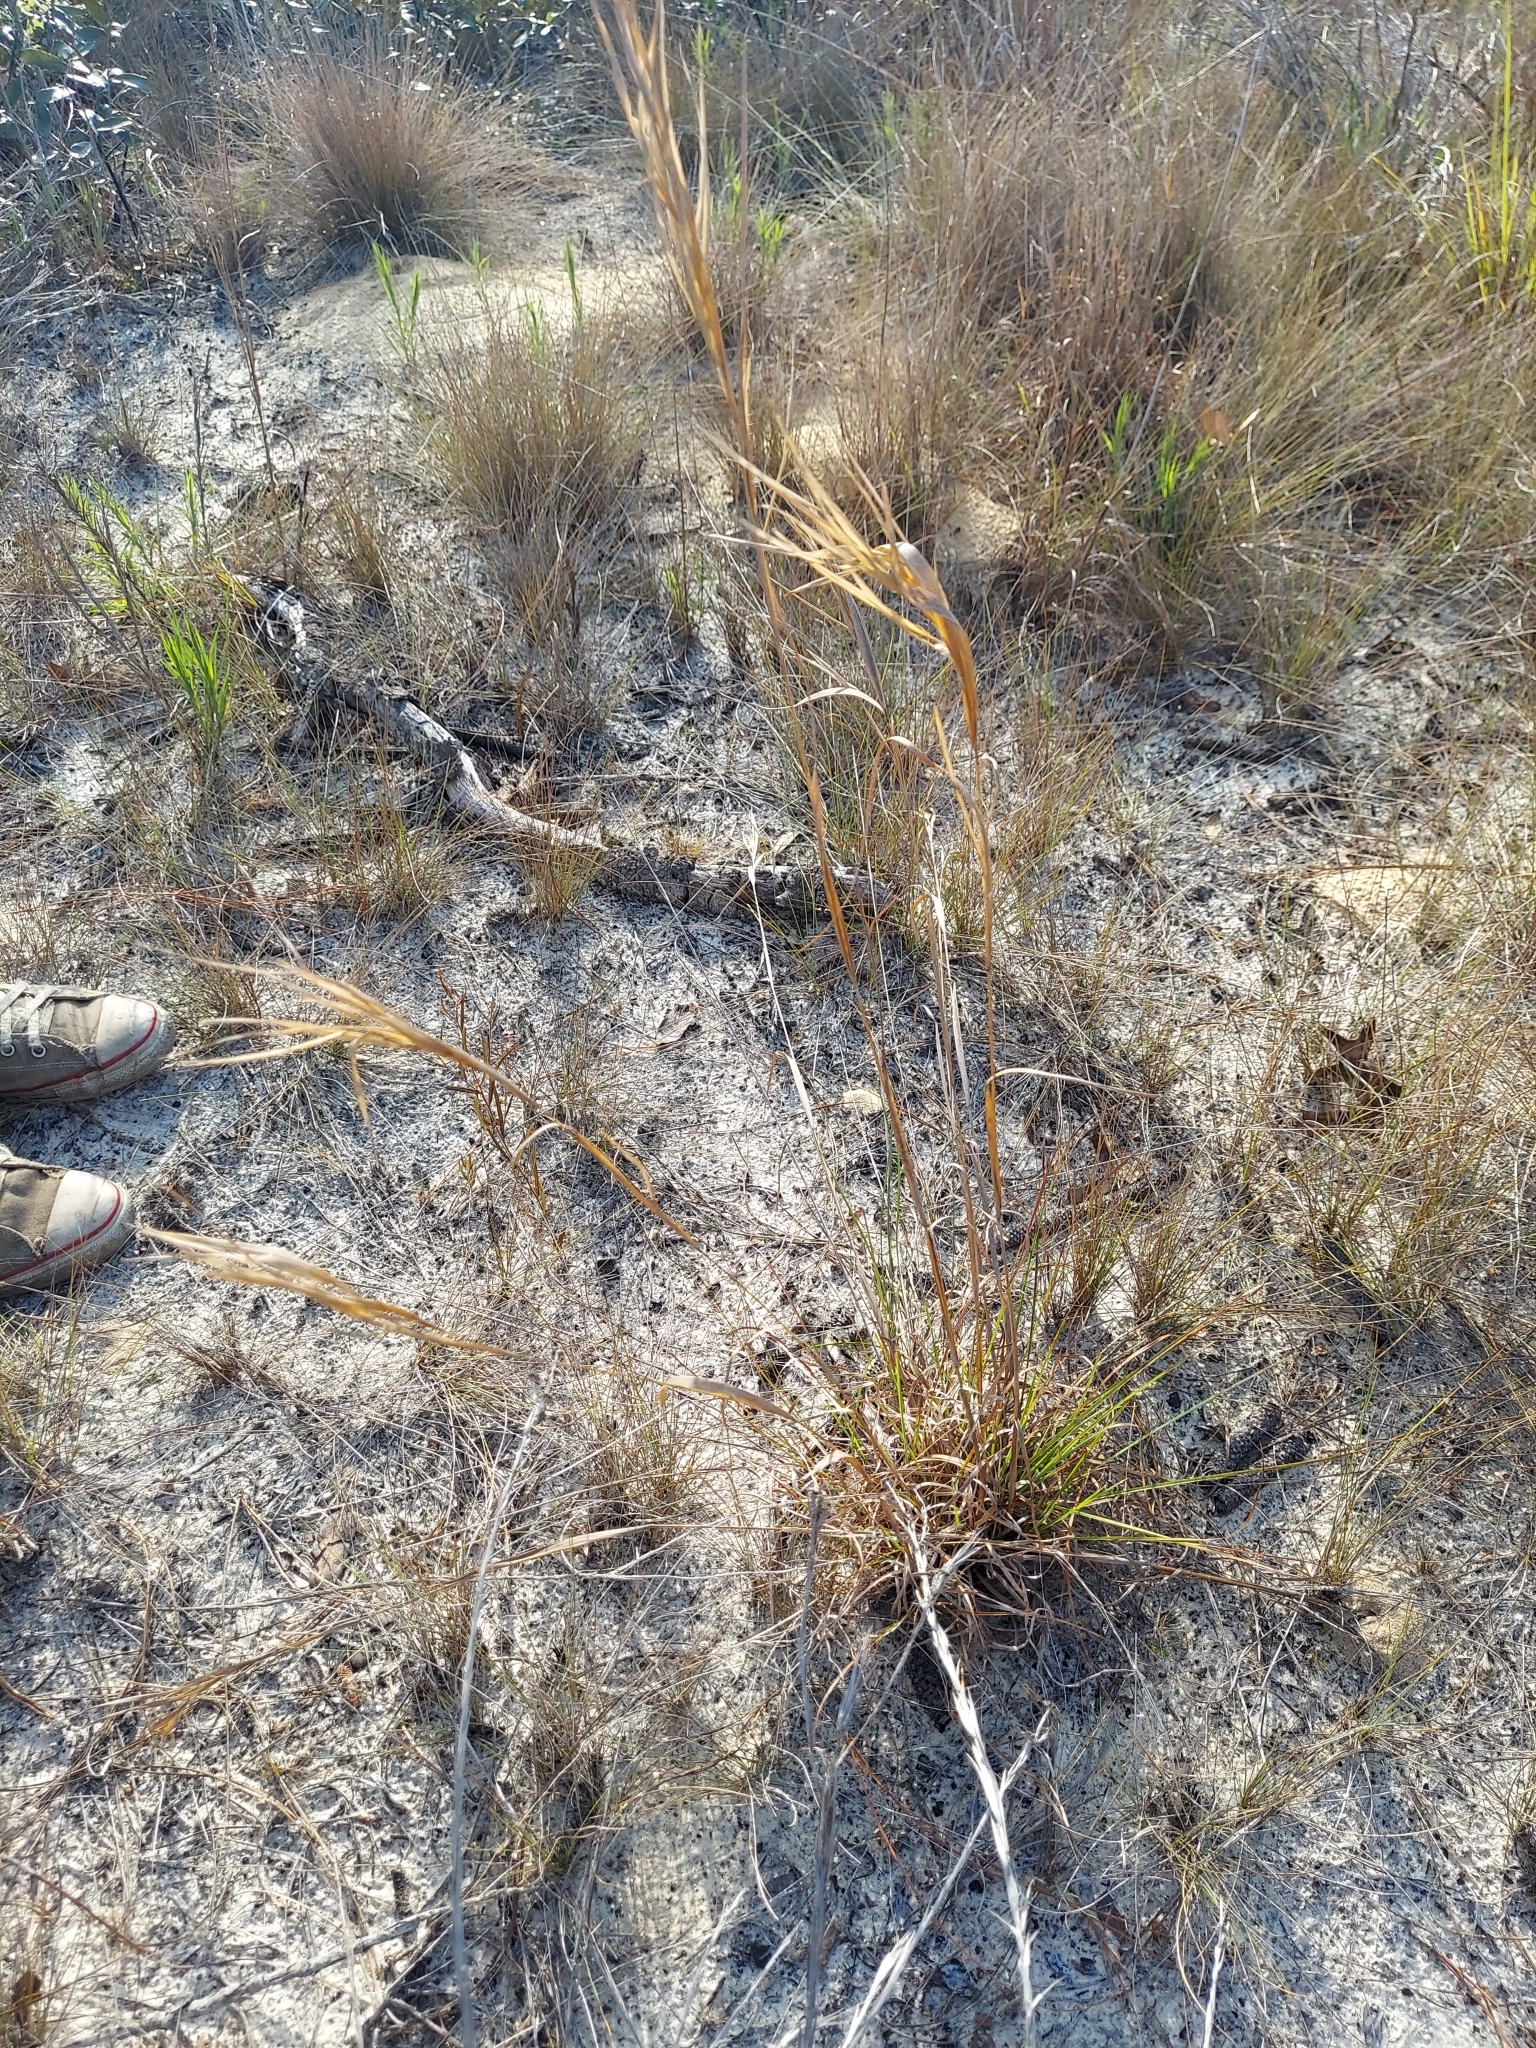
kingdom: Plantae
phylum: Tracheophyta
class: Liliopsida
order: Poales
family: Poaceae
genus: Andropogon
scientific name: Andropogon gyrans
